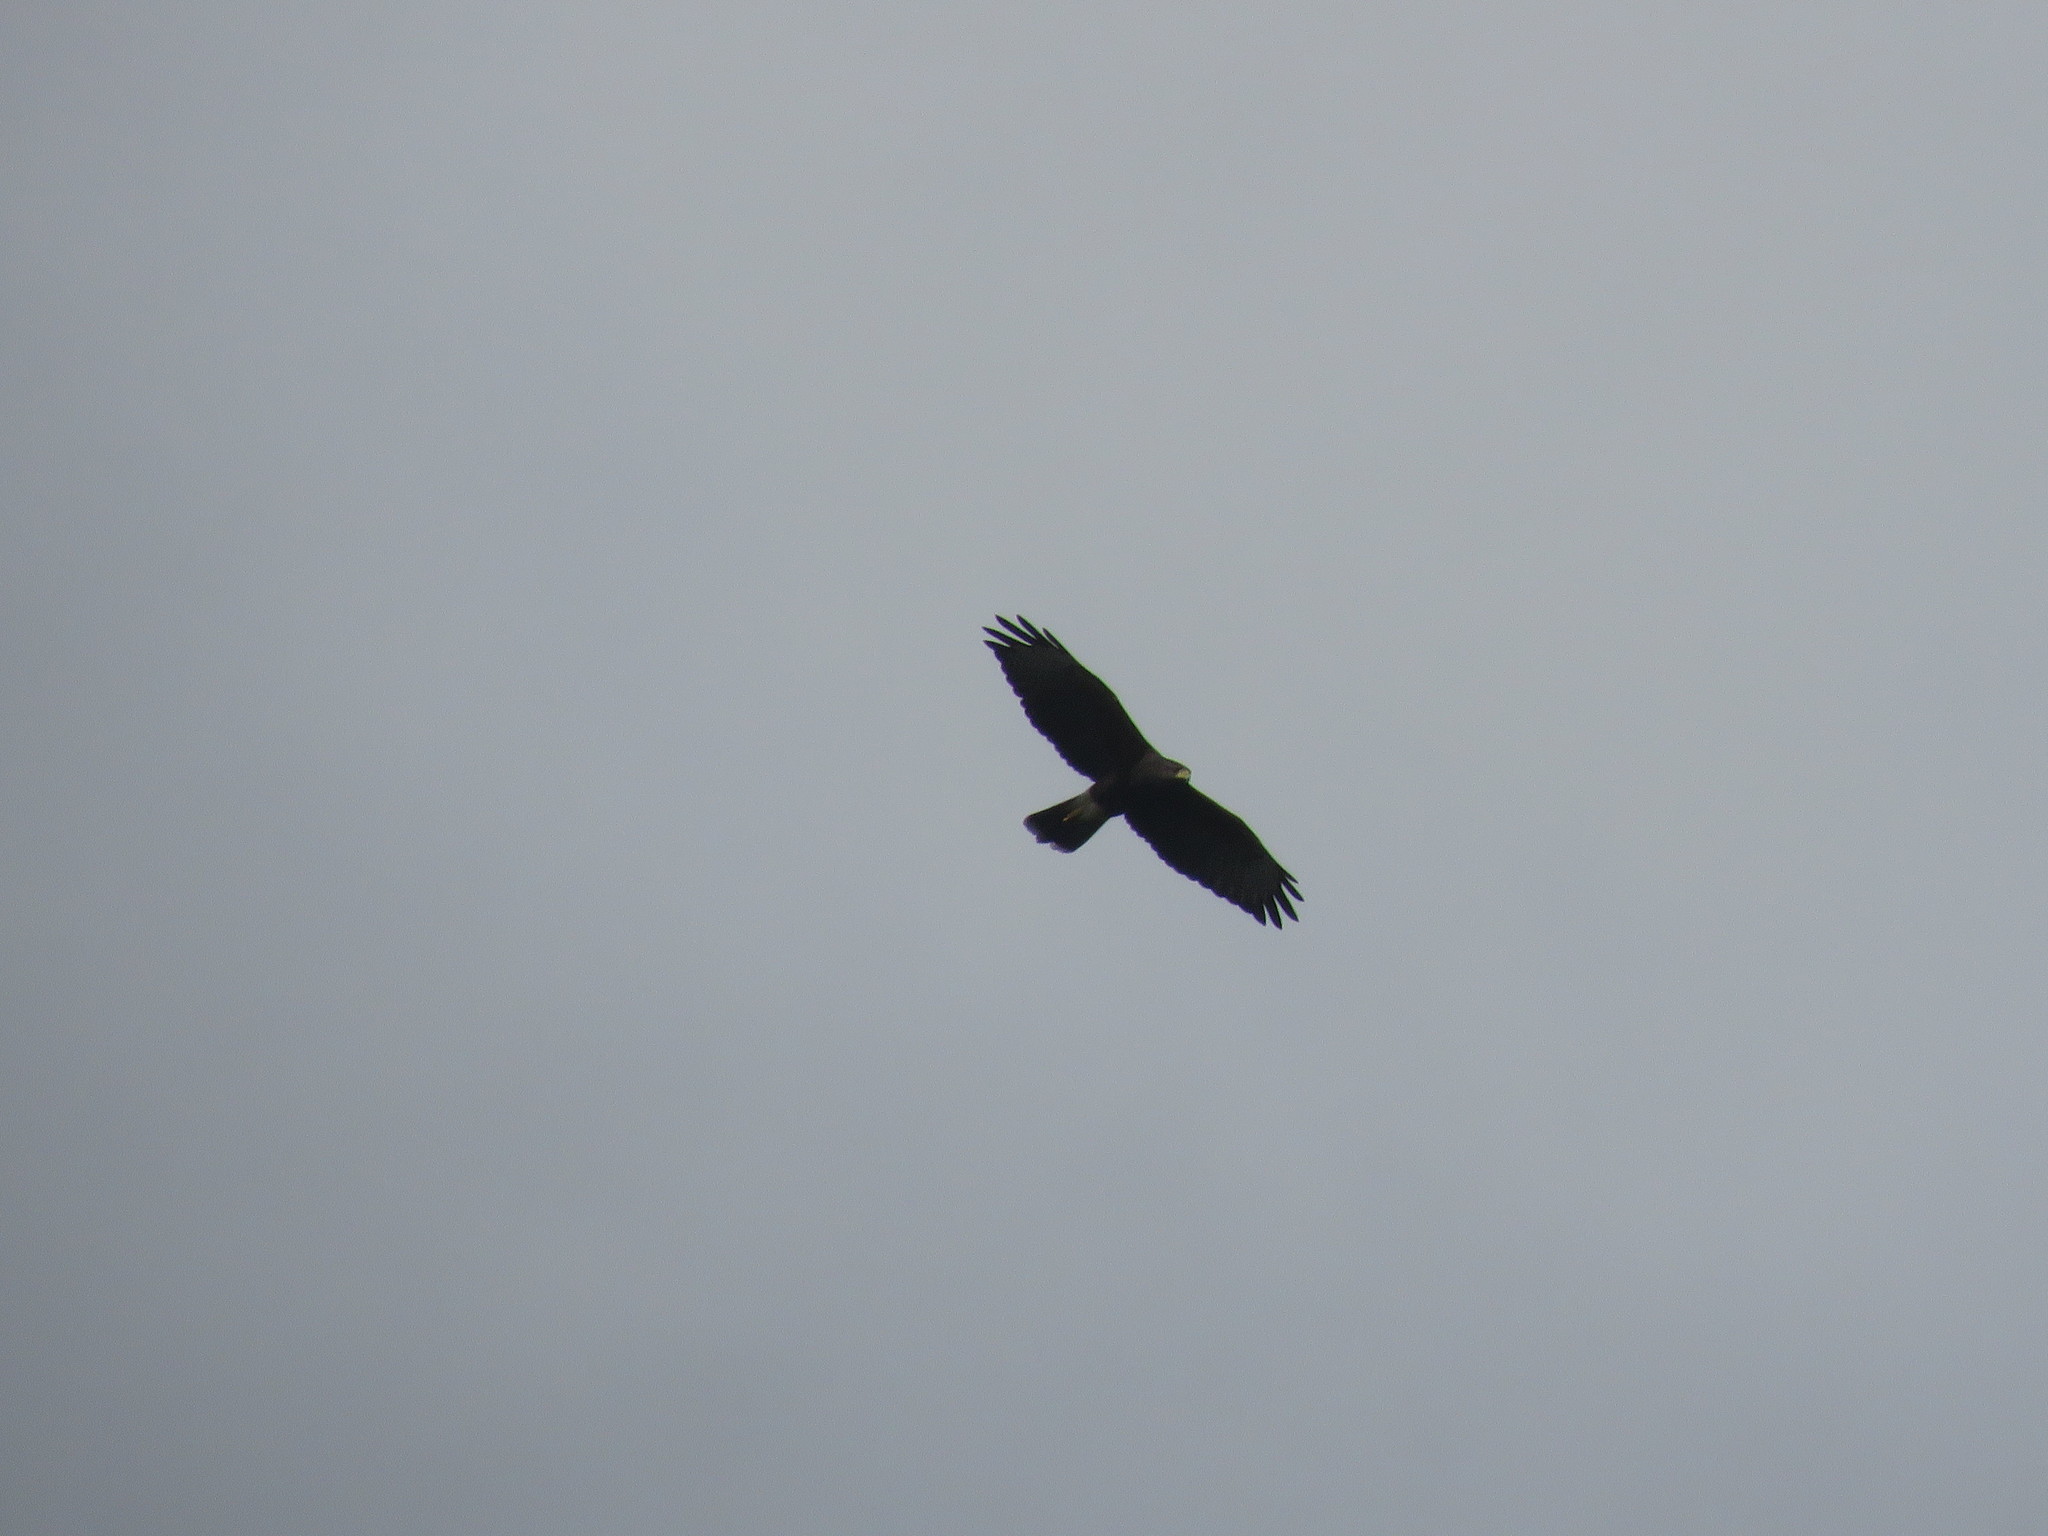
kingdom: Animalia
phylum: Chordata
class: Aves
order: Accipitriformes
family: Accipitridae
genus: Parabuteo
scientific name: Parabuteo unicinctus
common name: Harris's hawk
